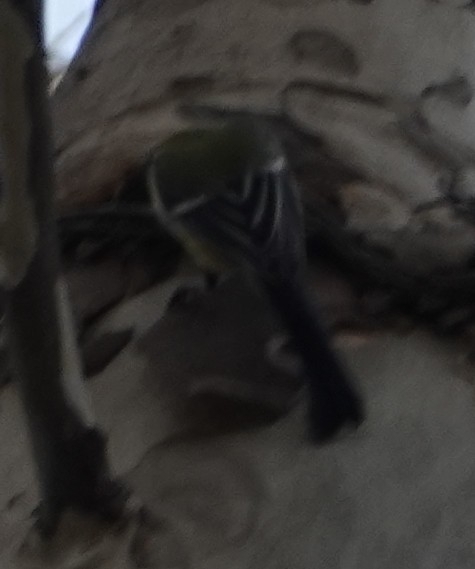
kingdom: Animalia
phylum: Chordata
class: Aves
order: Passeriformes
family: Paridae
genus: Parus
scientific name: Parus major
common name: Great tit
